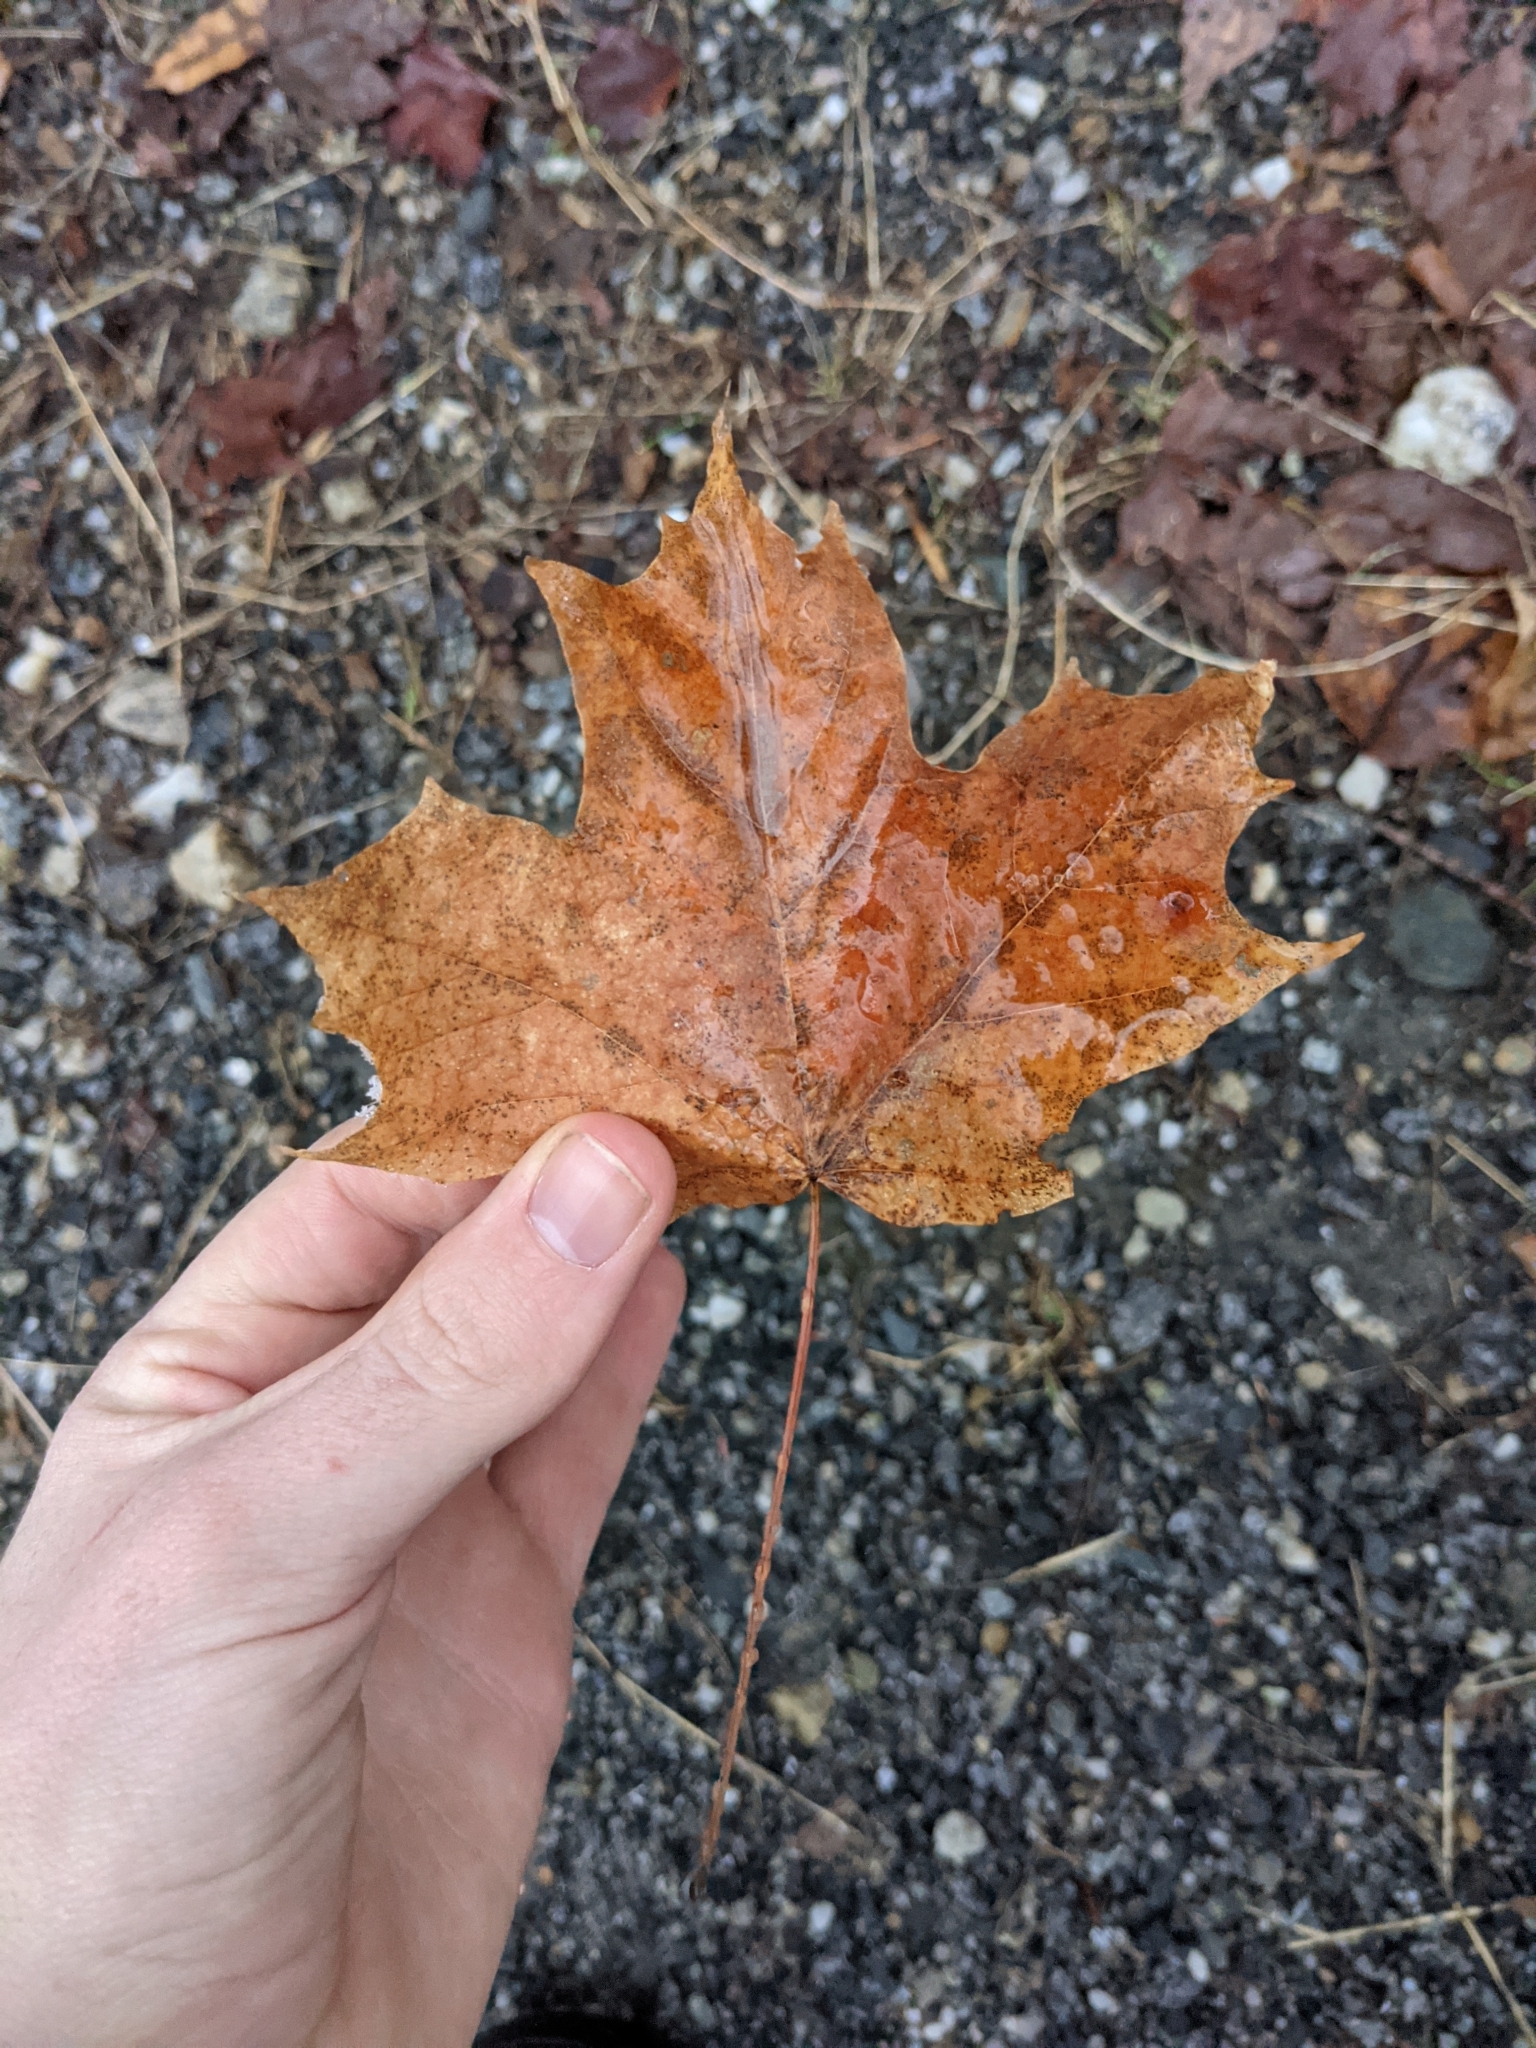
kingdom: Plantae
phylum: Tracheophyta
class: Magnoliopsida
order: Sapindales
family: Sapindaceae
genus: Acer
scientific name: Acer saccharum
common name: Sugar maple
